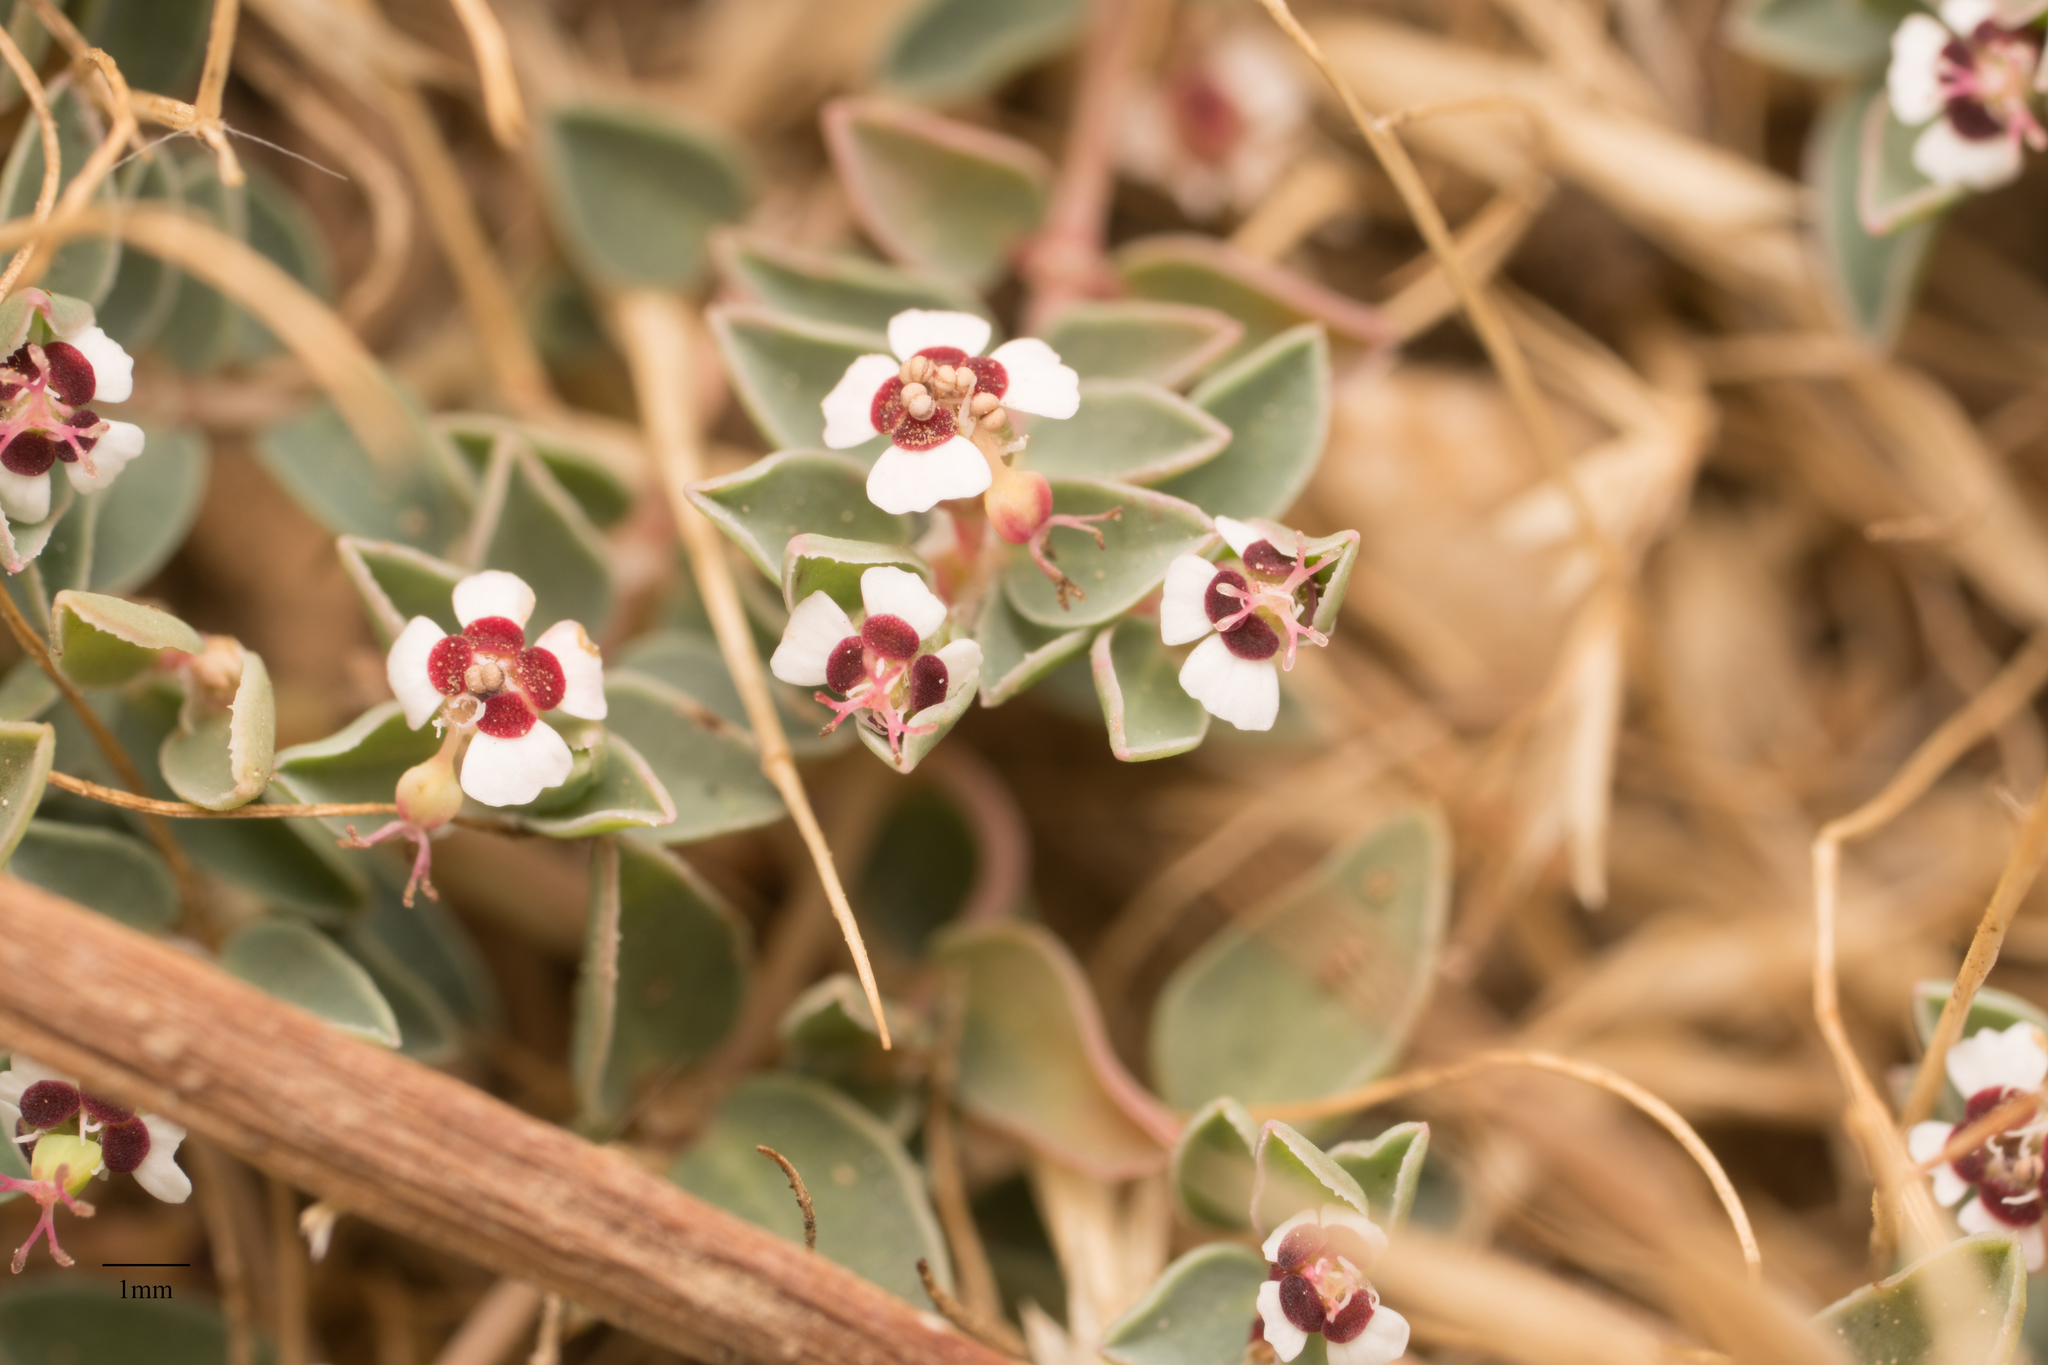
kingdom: Plantae
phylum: Tracheophyta
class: Magnoliopsida
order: Malpighiales
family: Euphorbiaceae
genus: Euphorbia
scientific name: Euphorbia albomarginata
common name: Whitemargin sandmat
